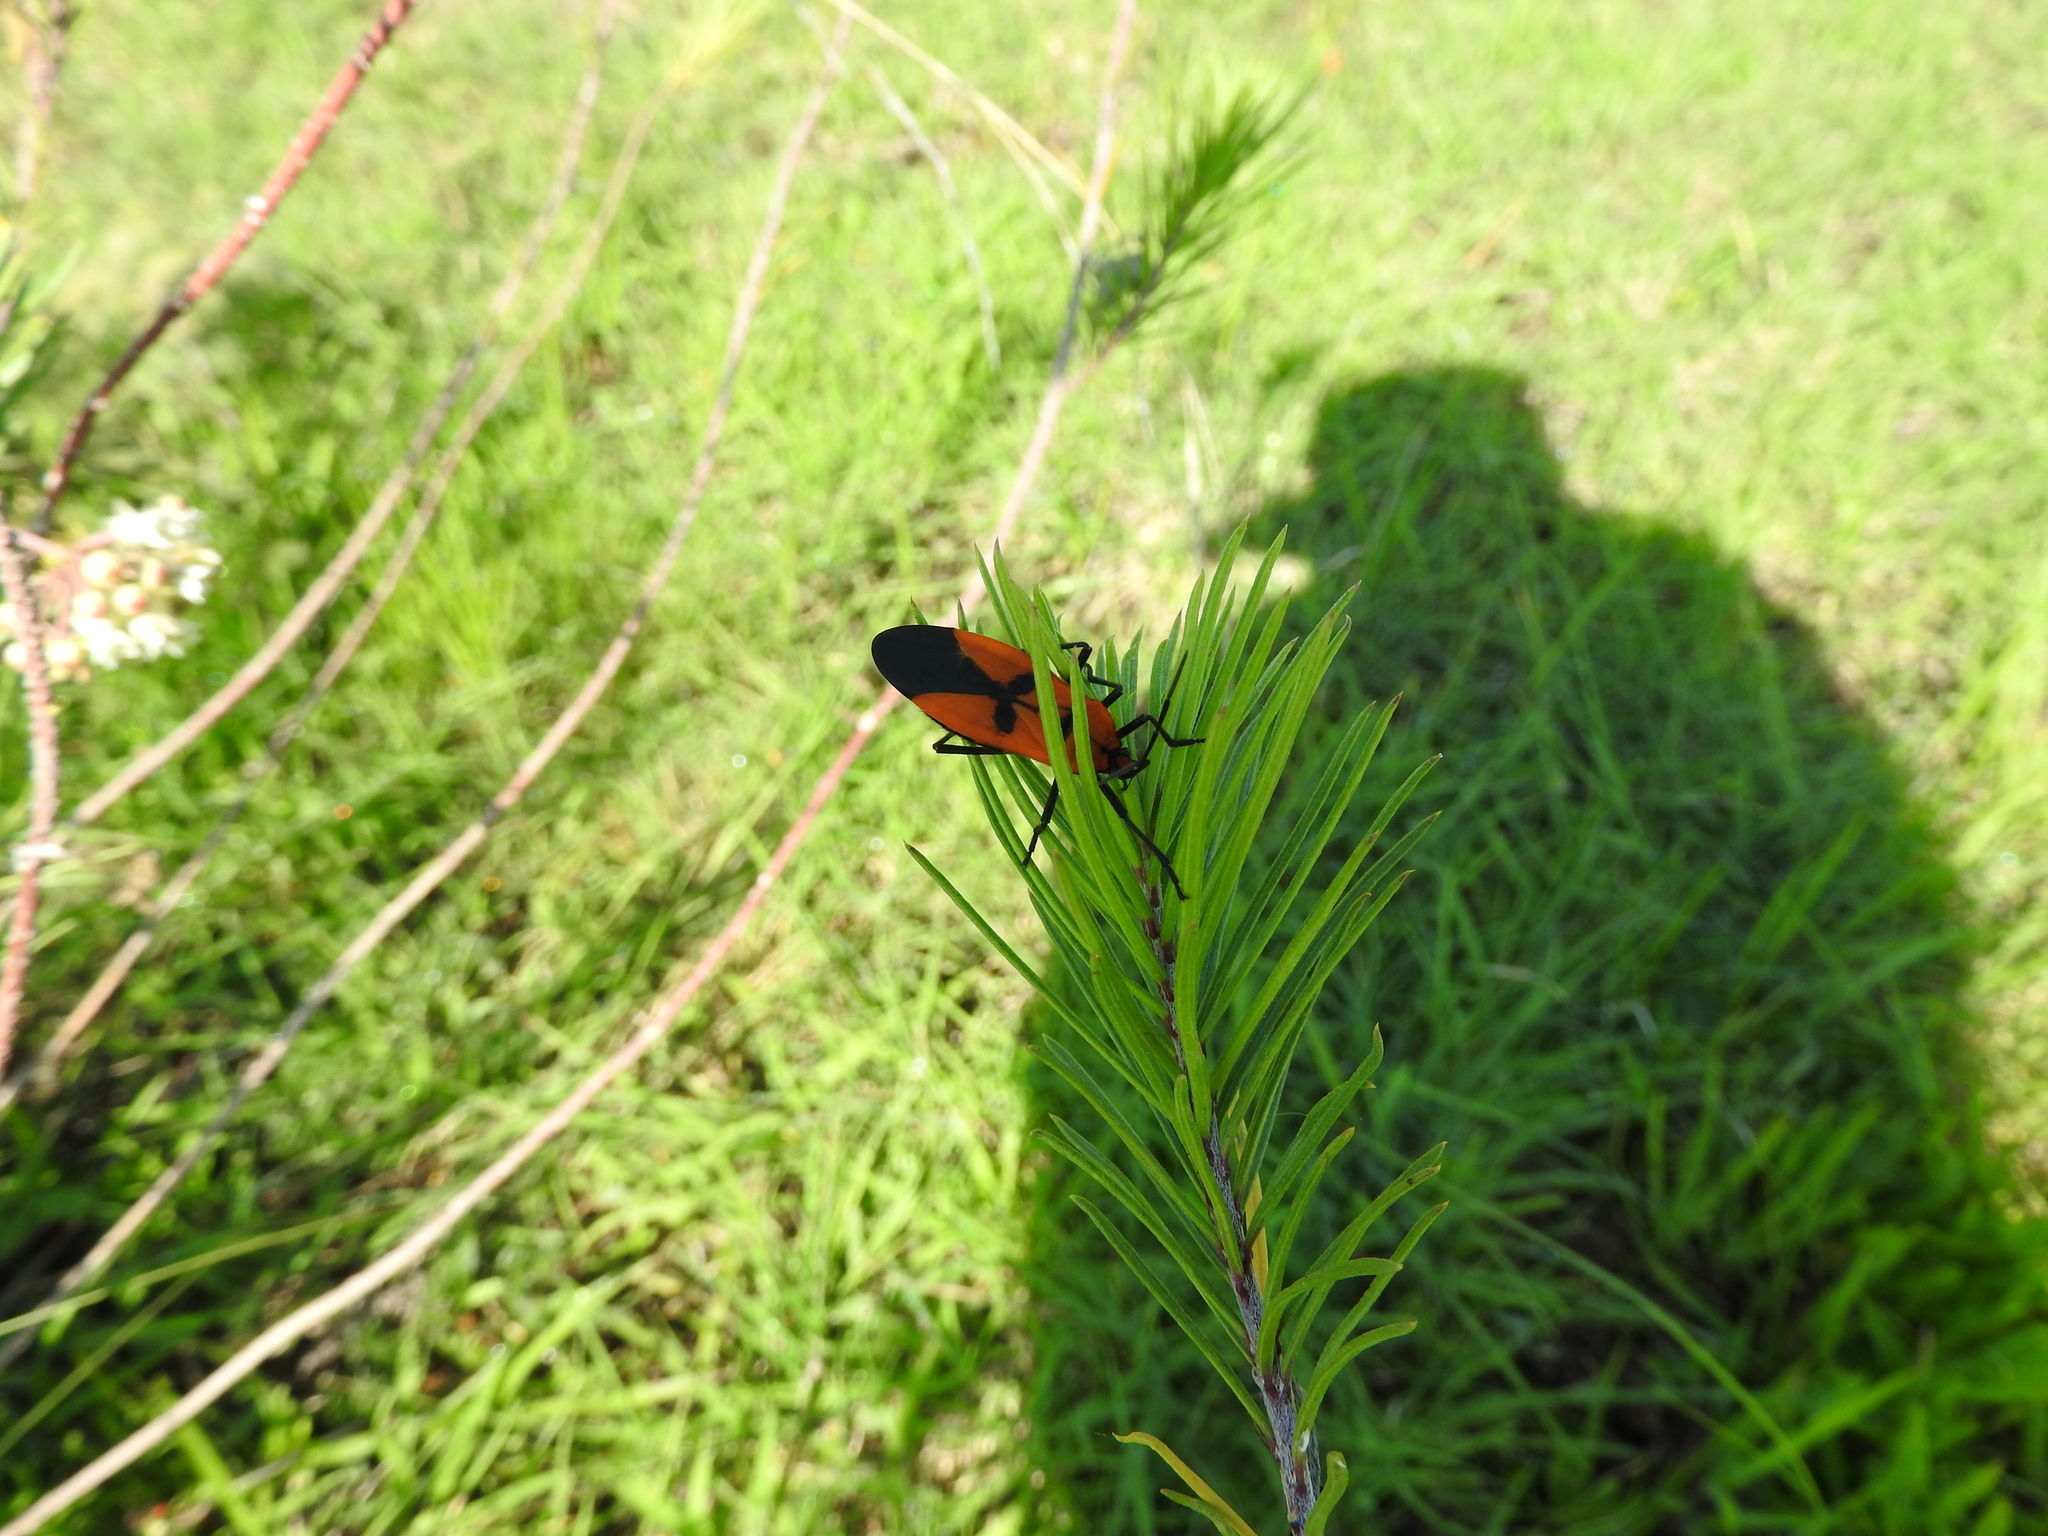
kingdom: Animalia
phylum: Arthropoda
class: Insecta
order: Hemiptera
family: Lygaeidae
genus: Oncopeltus
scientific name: Oncopeltus varicolor
